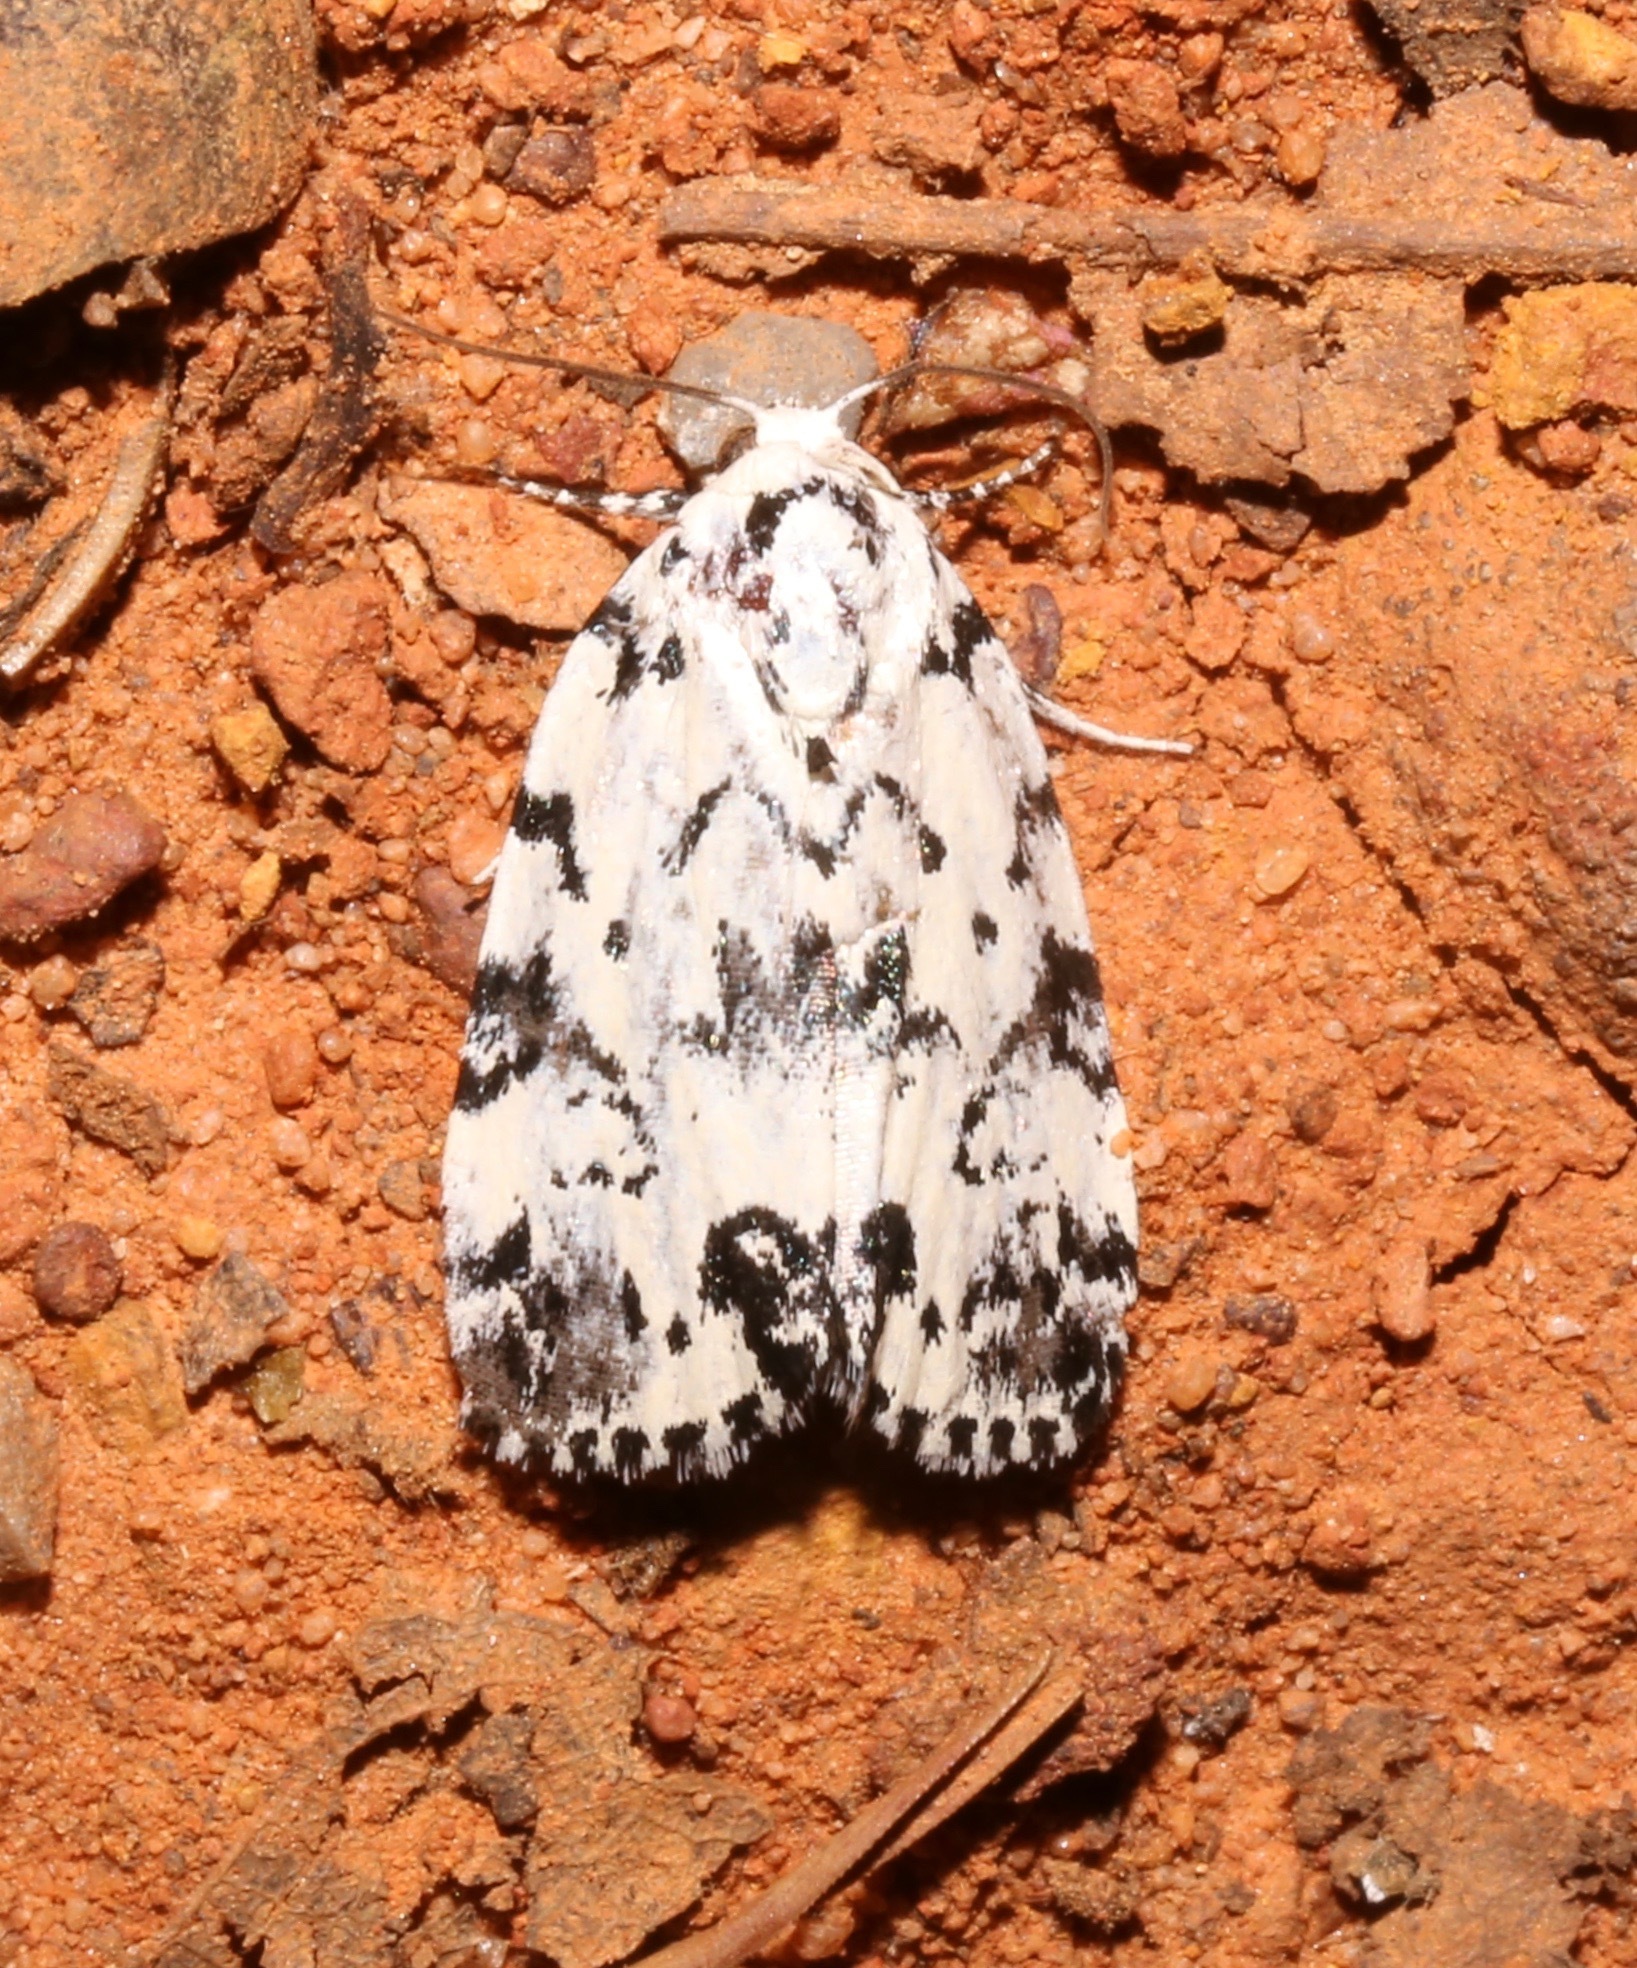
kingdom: Animalia
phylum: Arthropoda
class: Insecta
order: Lepidoptera
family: Noctuidae
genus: Polygrammate
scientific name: Polygrammate hebraeicum
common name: Hebrew moth
